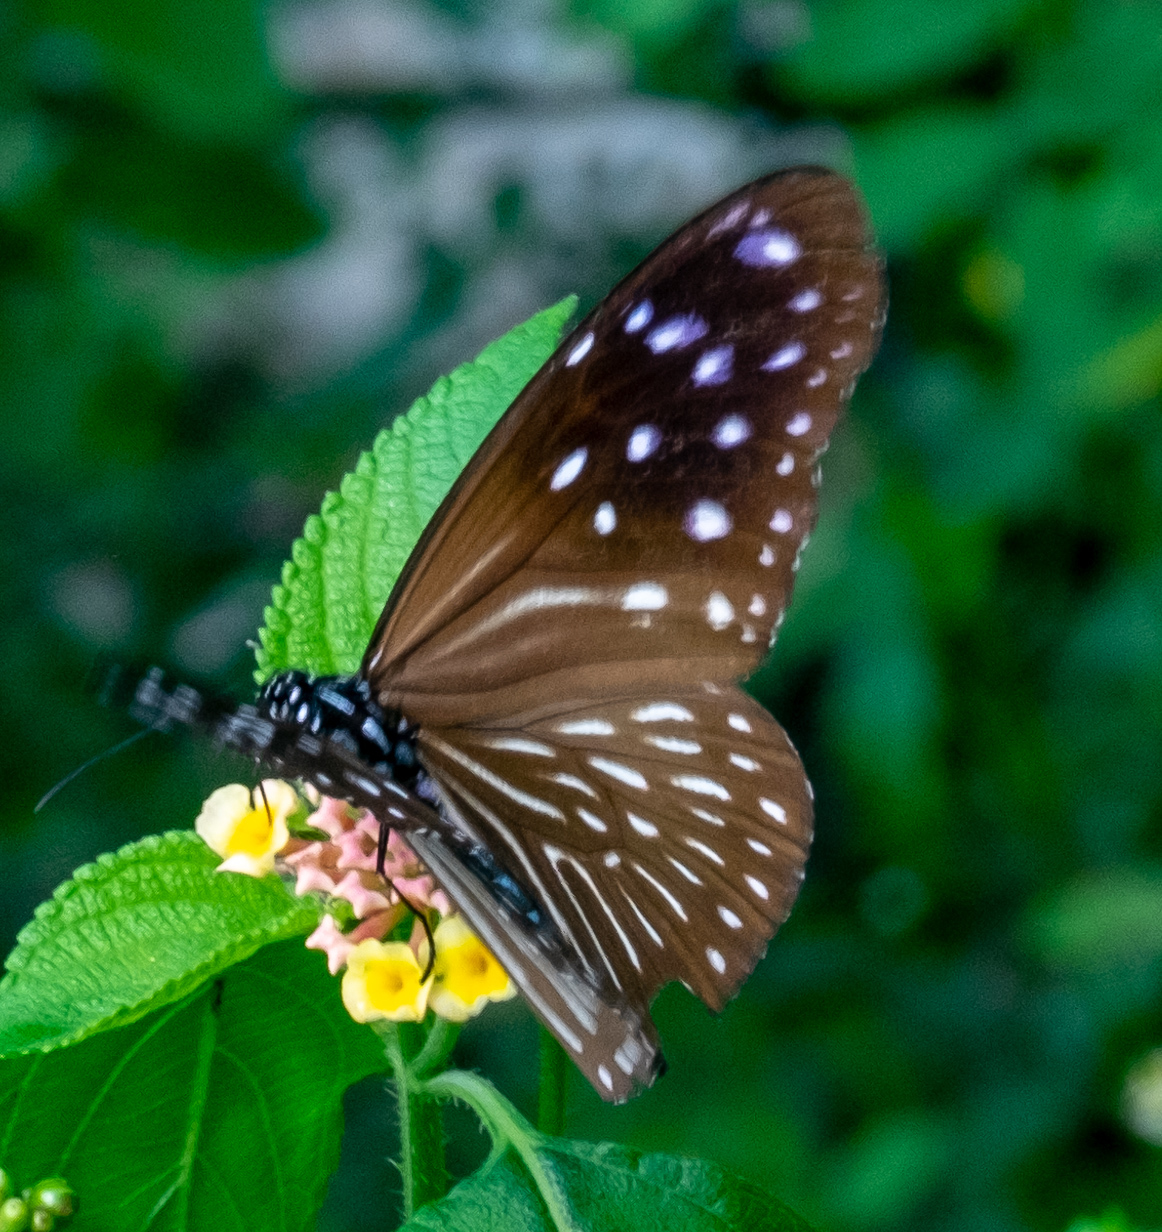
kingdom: Animalia
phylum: Arthropoda
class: Insecta
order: Lepidoptera
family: Nymphalidae
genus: Euploea
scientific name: Euploea mulciber
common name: Striped blue crow butterfly
